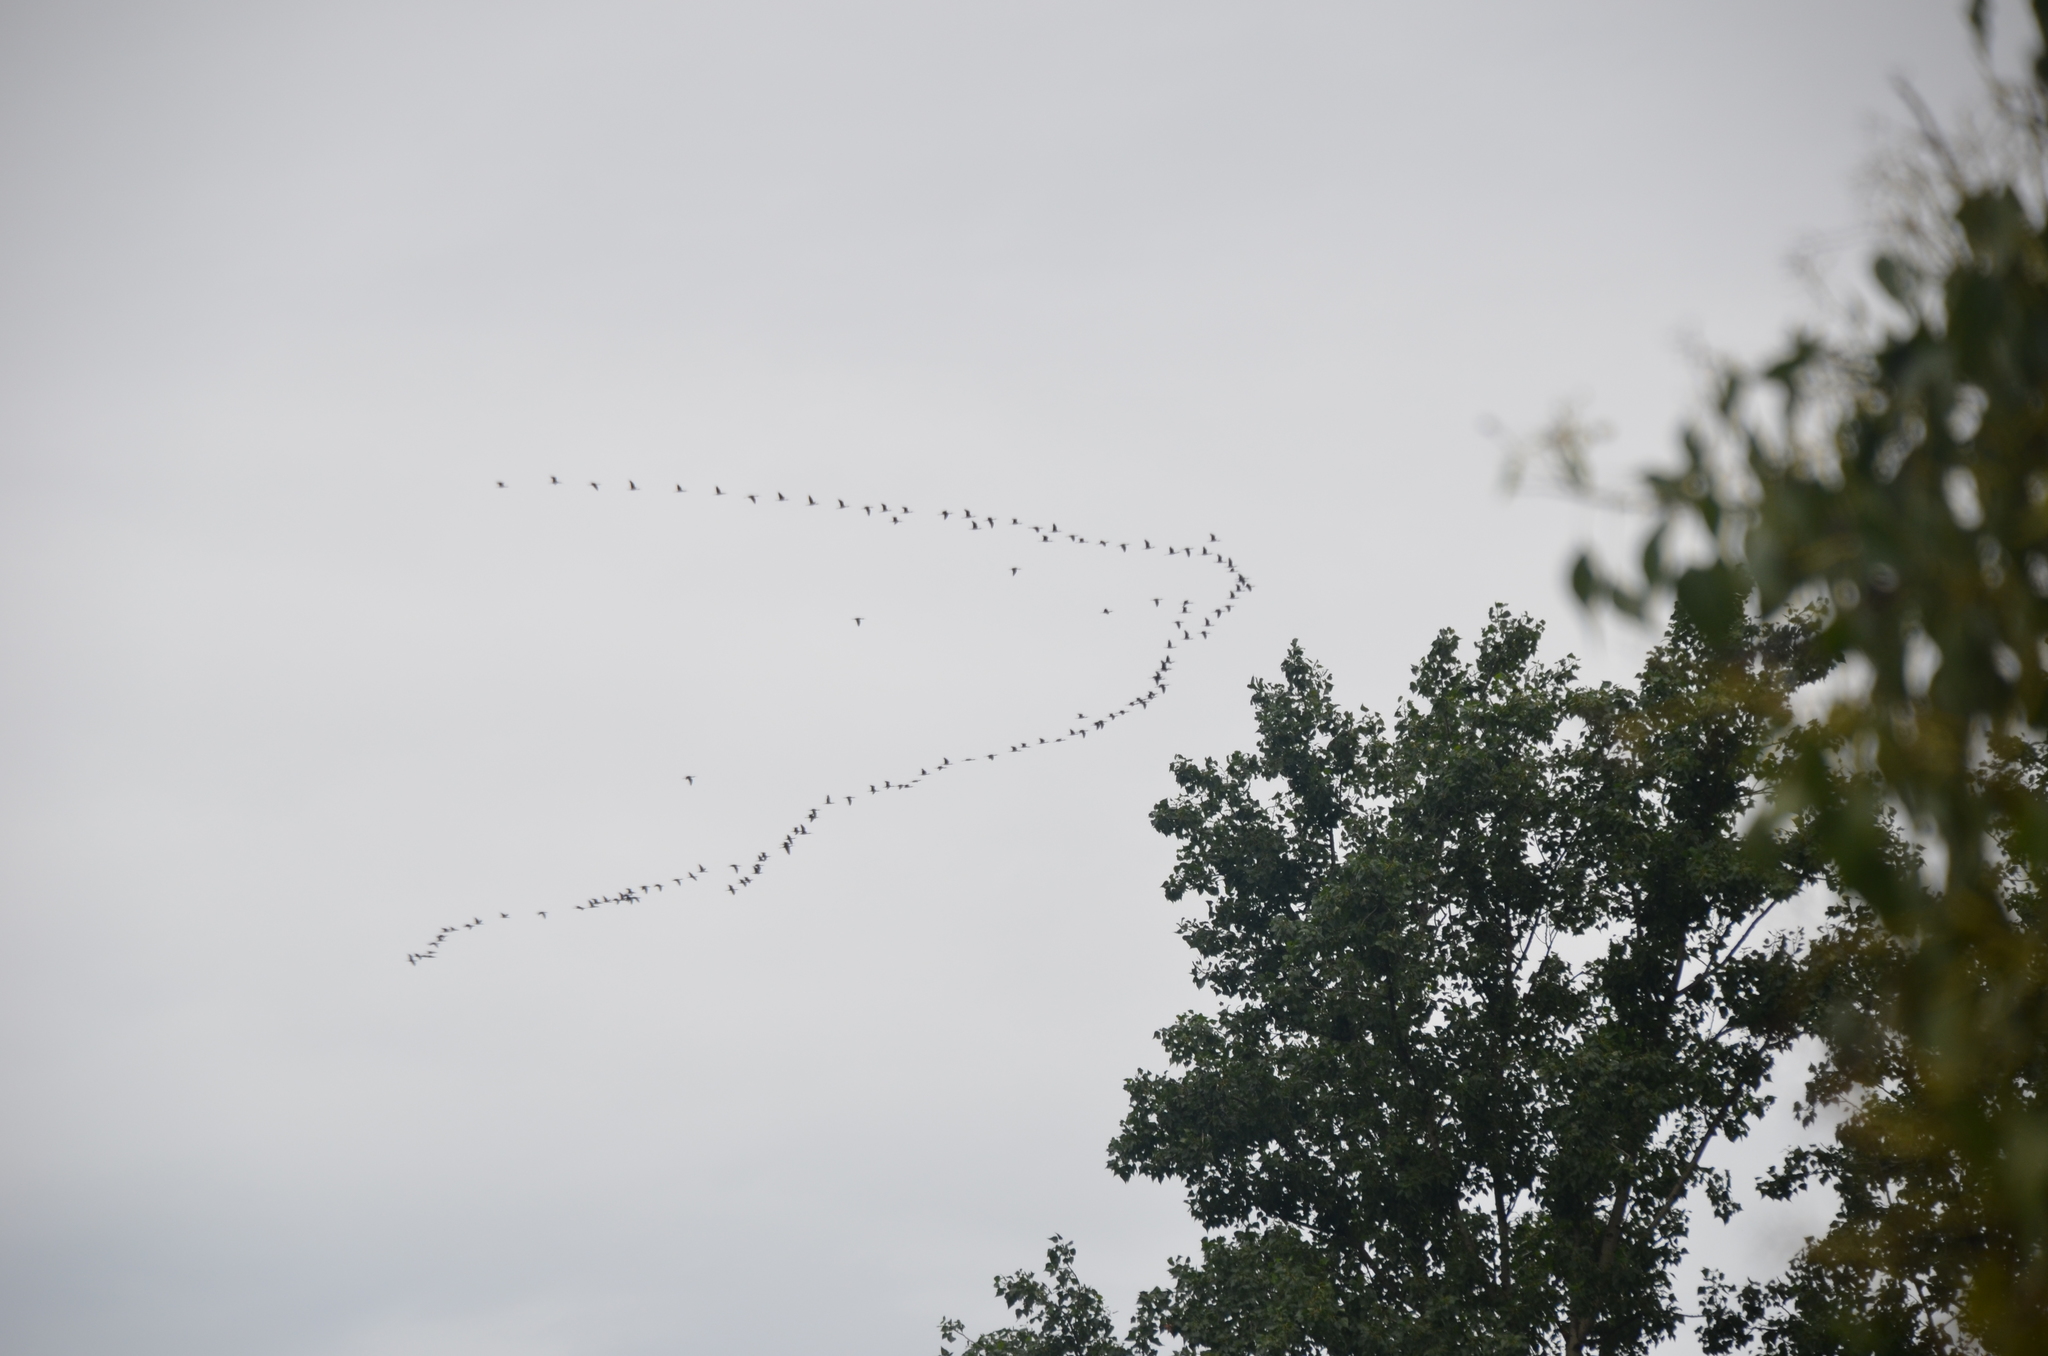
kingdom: Animalia
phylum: Chordata
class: Aves
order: Pelecaniformes
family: Threskiornithidae
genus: Plegadis
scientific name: Plegadis chihi
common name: White-faced ibis
